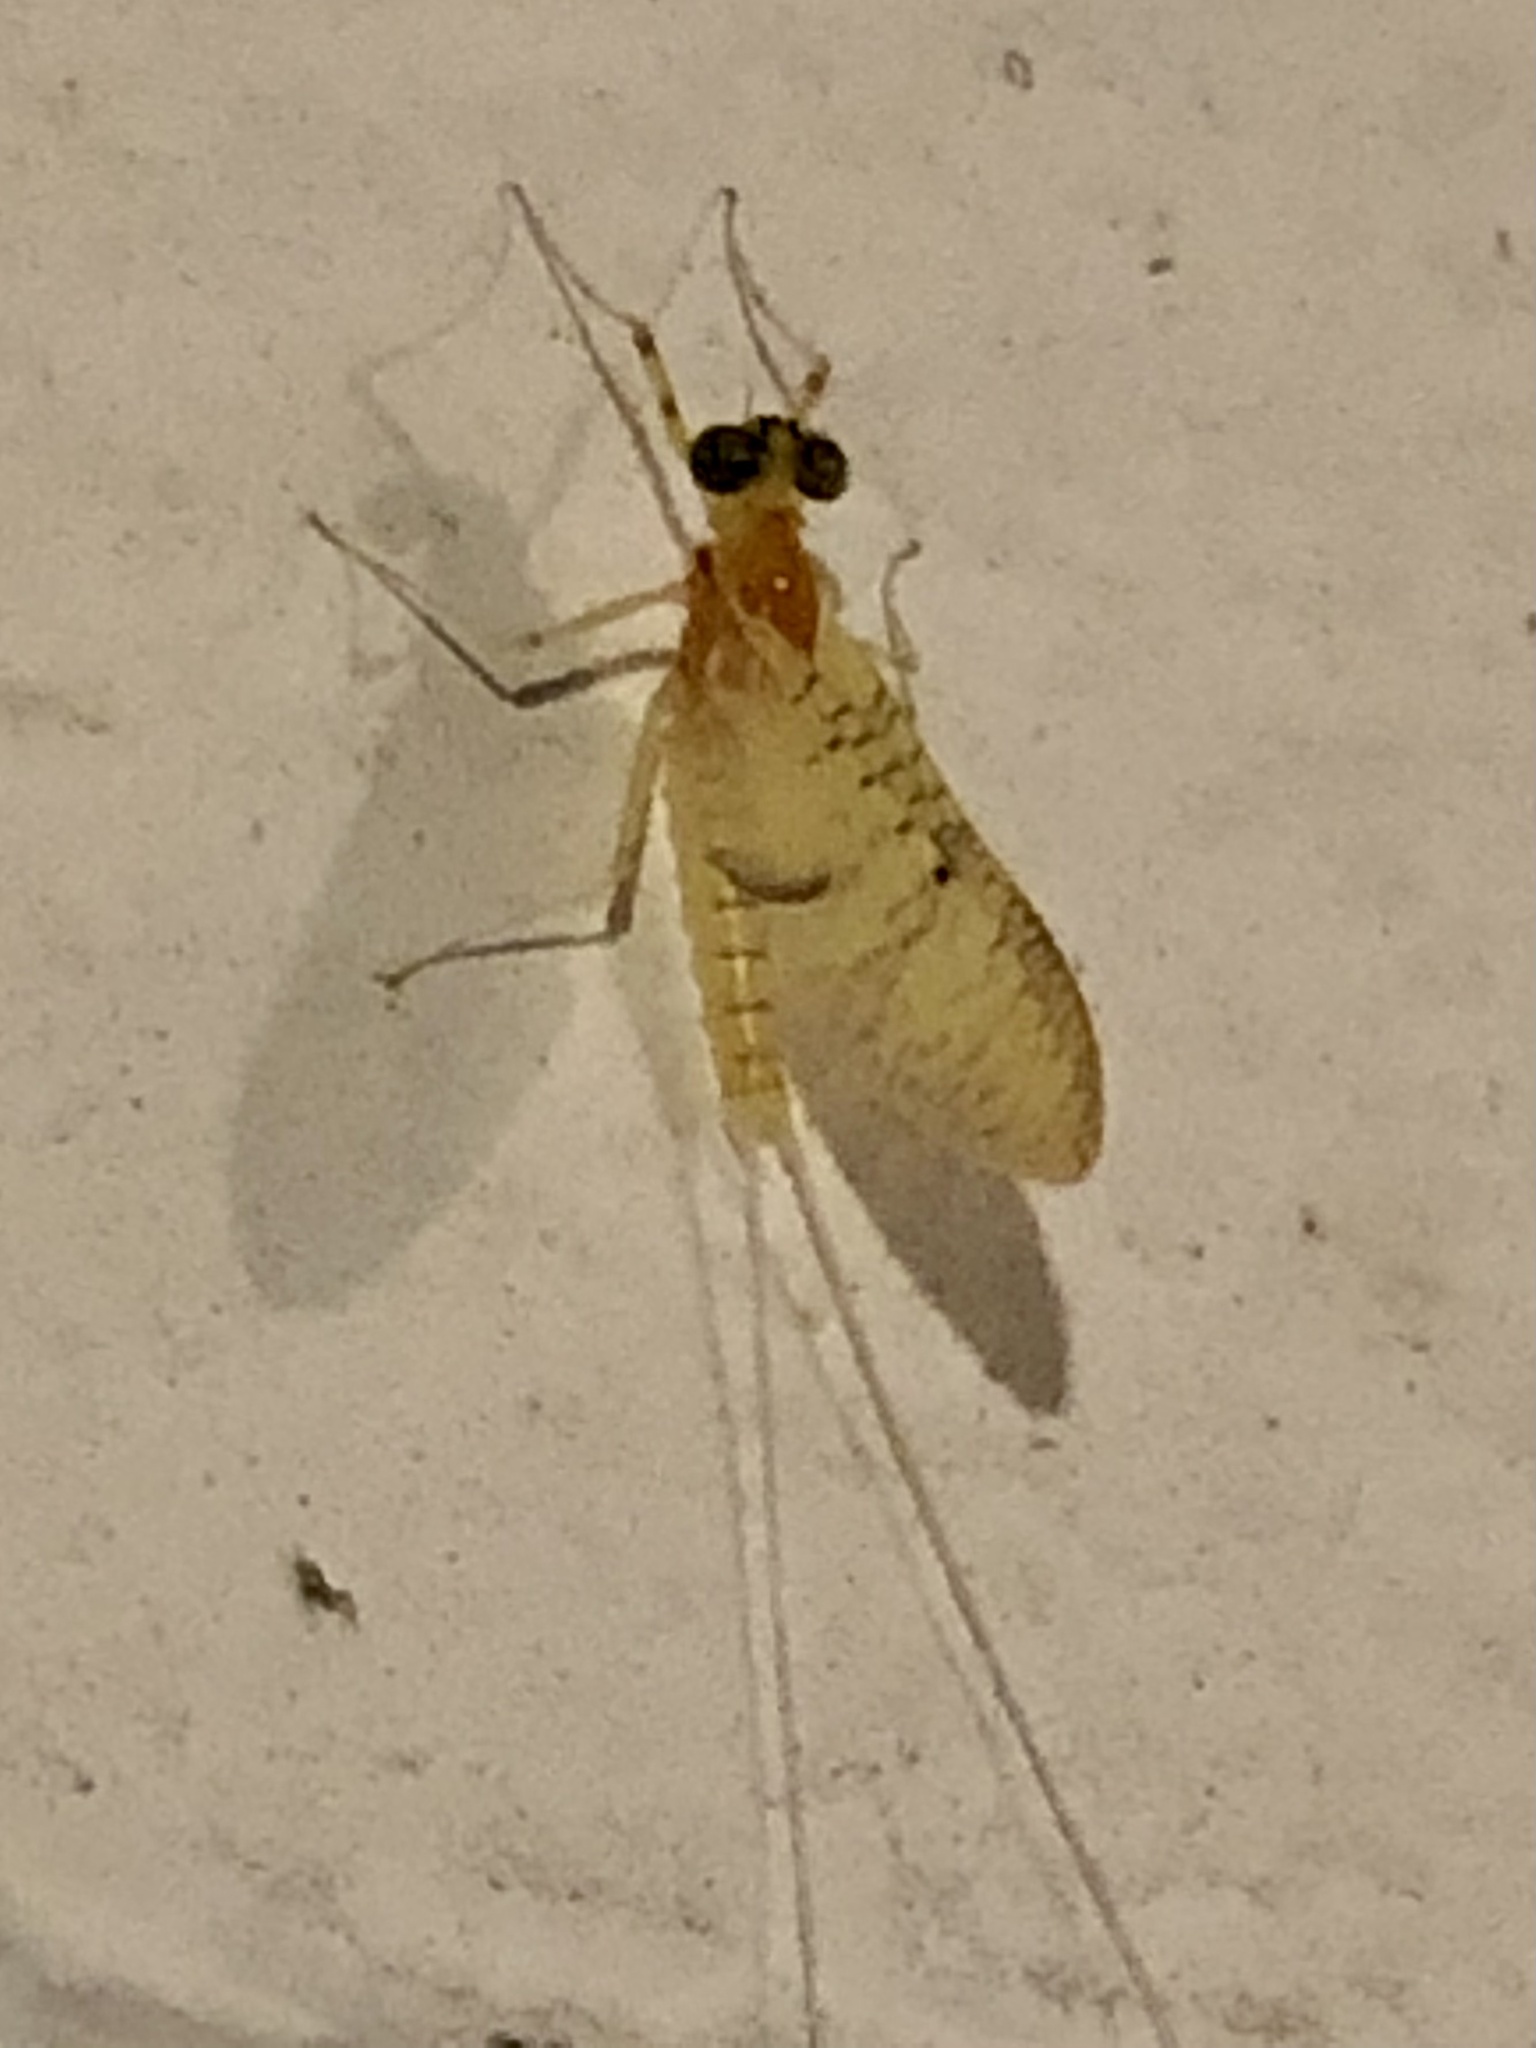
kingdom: Animalia
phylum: Arthropoda
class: Insecta
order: Ephemeroptera
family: Heptageniidae
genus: Stenacron
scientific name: Stenacron interpunctatum
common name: Orange cahill
